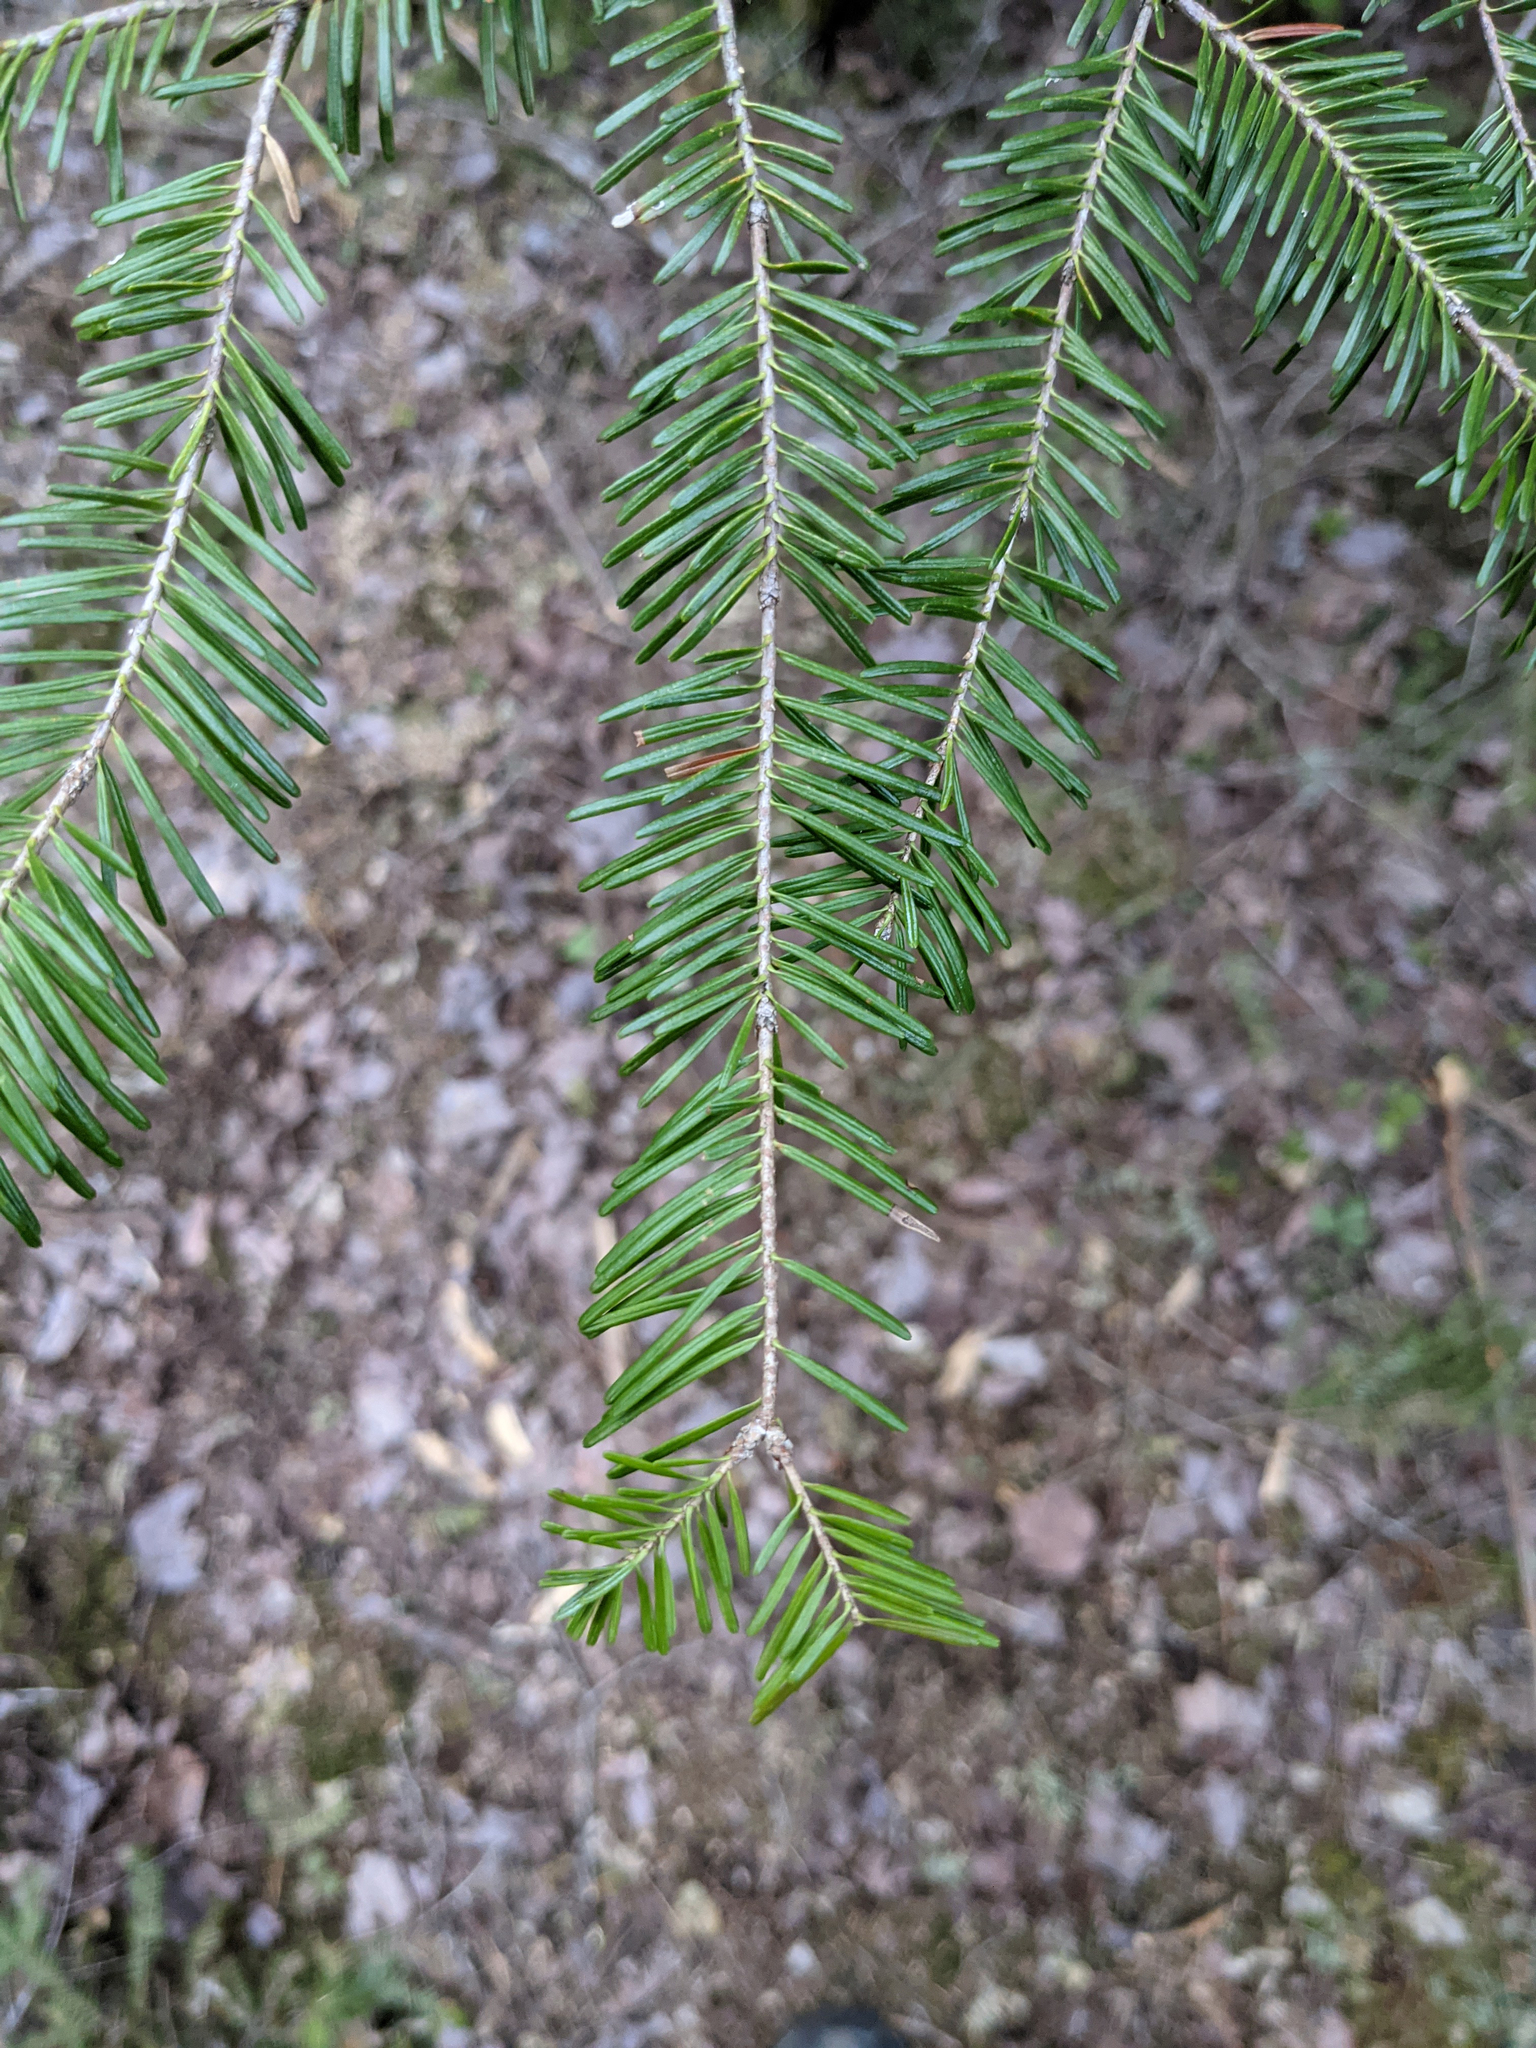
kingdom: Plantae
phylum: Tracheophyta
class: Pinopsida
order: Pinales
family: Pinaceae
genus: Abies
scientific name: Abies balsamea
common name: Balsam fir
